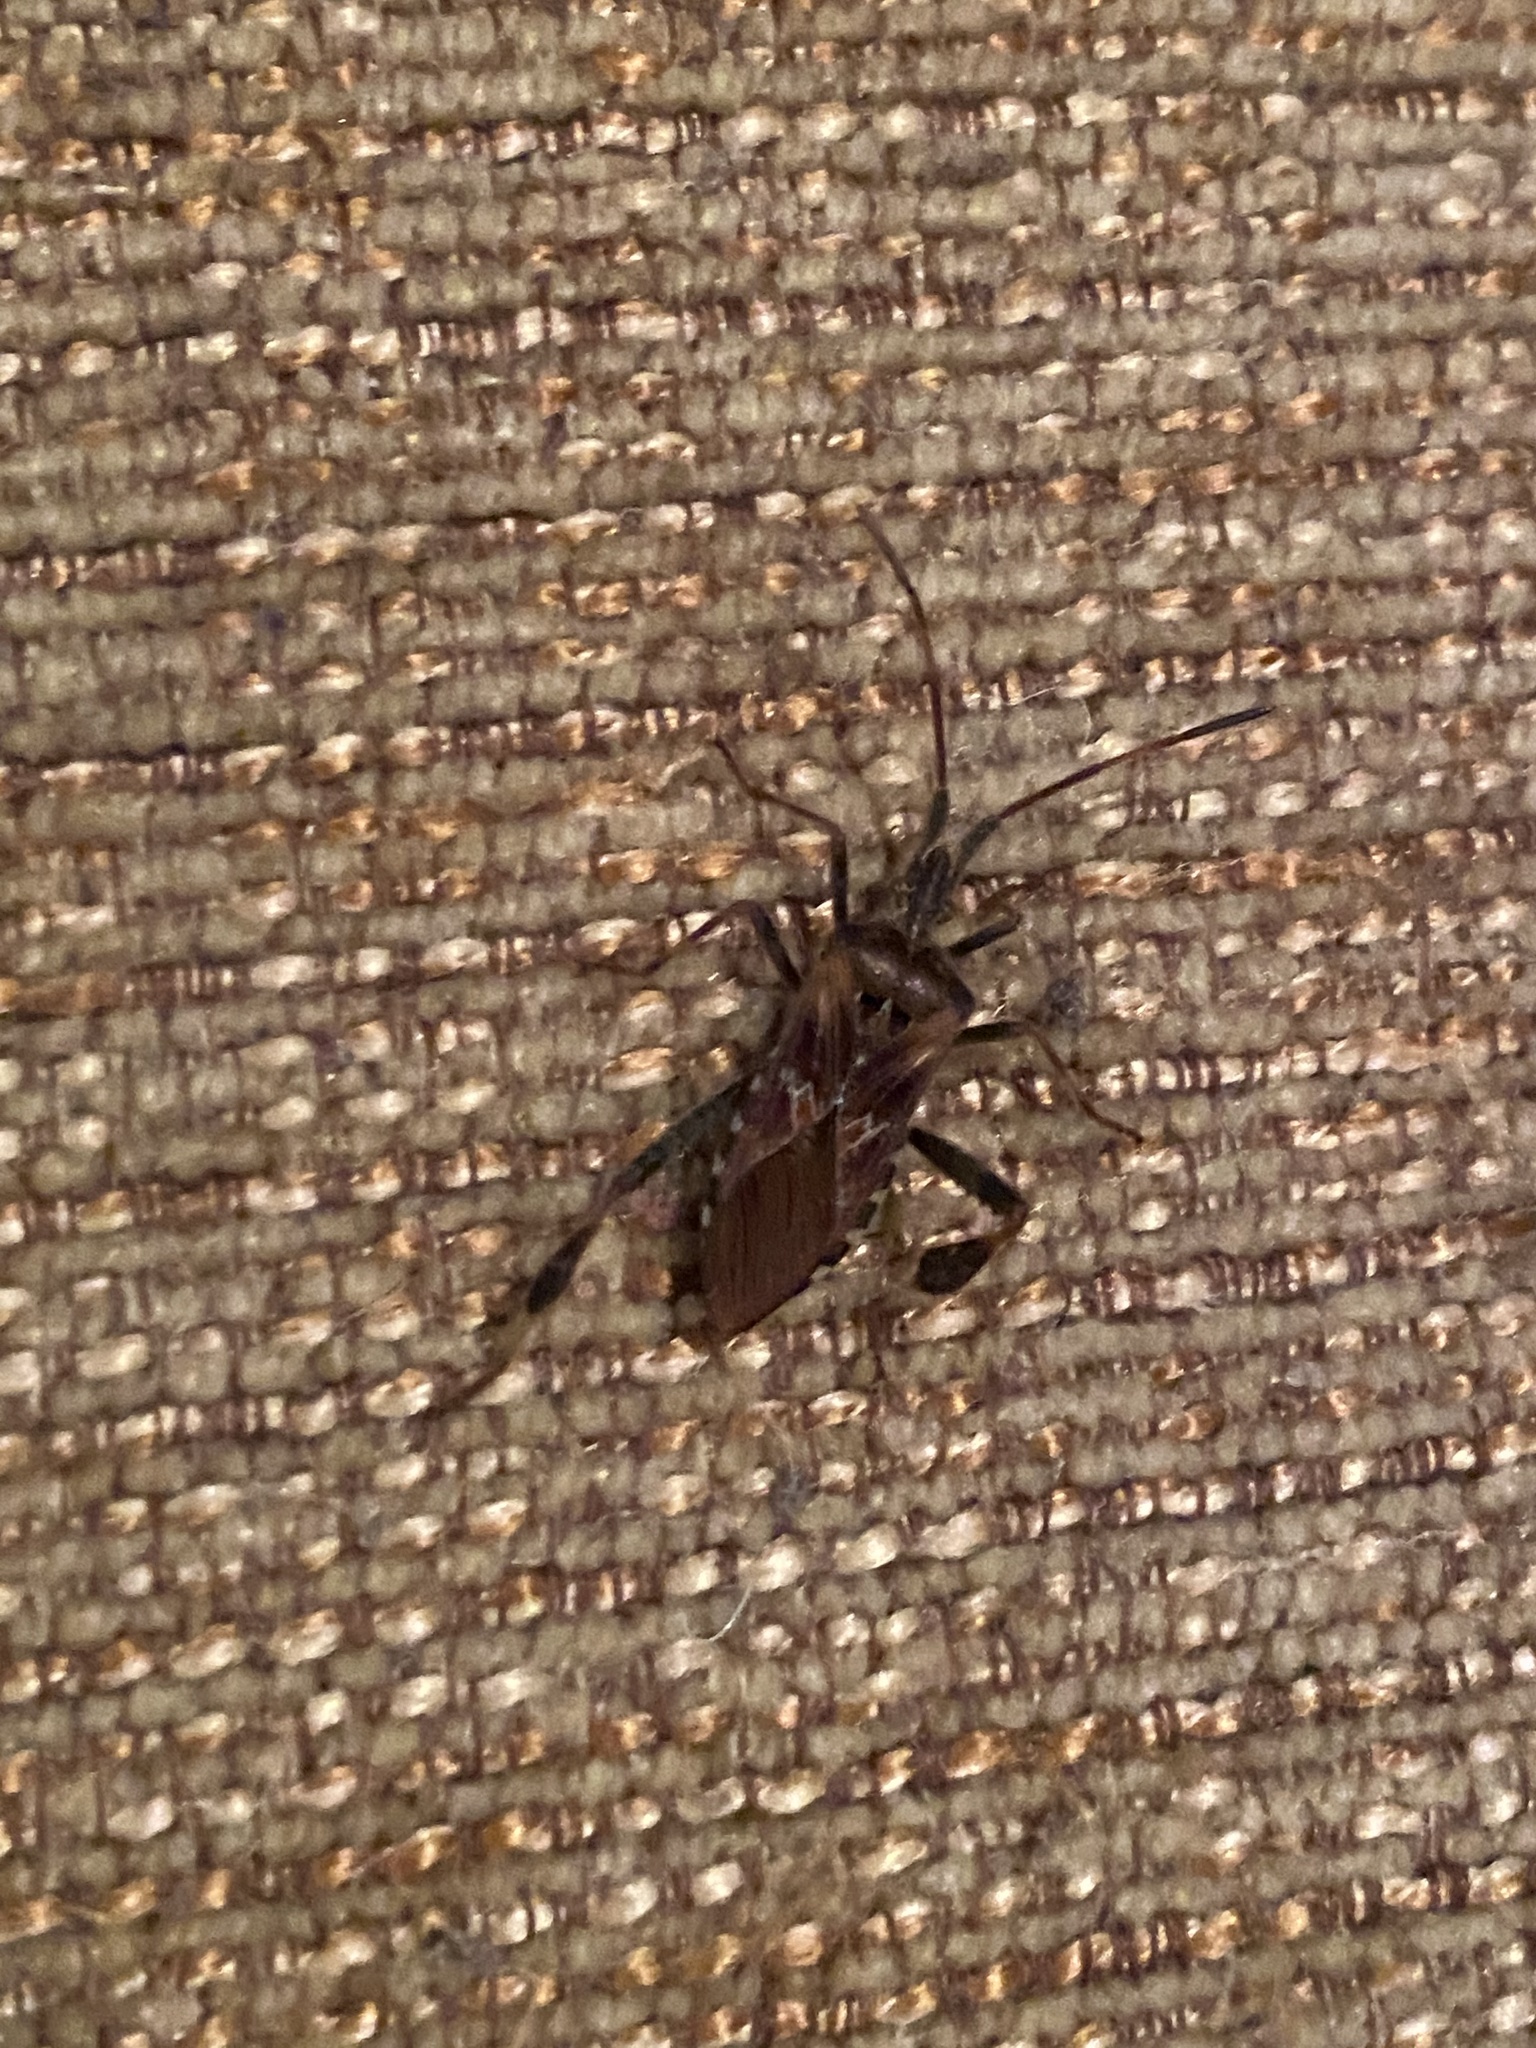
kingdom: Animalia
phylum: Arthropoda
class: Insecta
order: Hemiptera
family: Coreidae
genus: Leptoglossus
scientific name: Leptoglossus occidentalis
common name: Western conifer-seed bug
